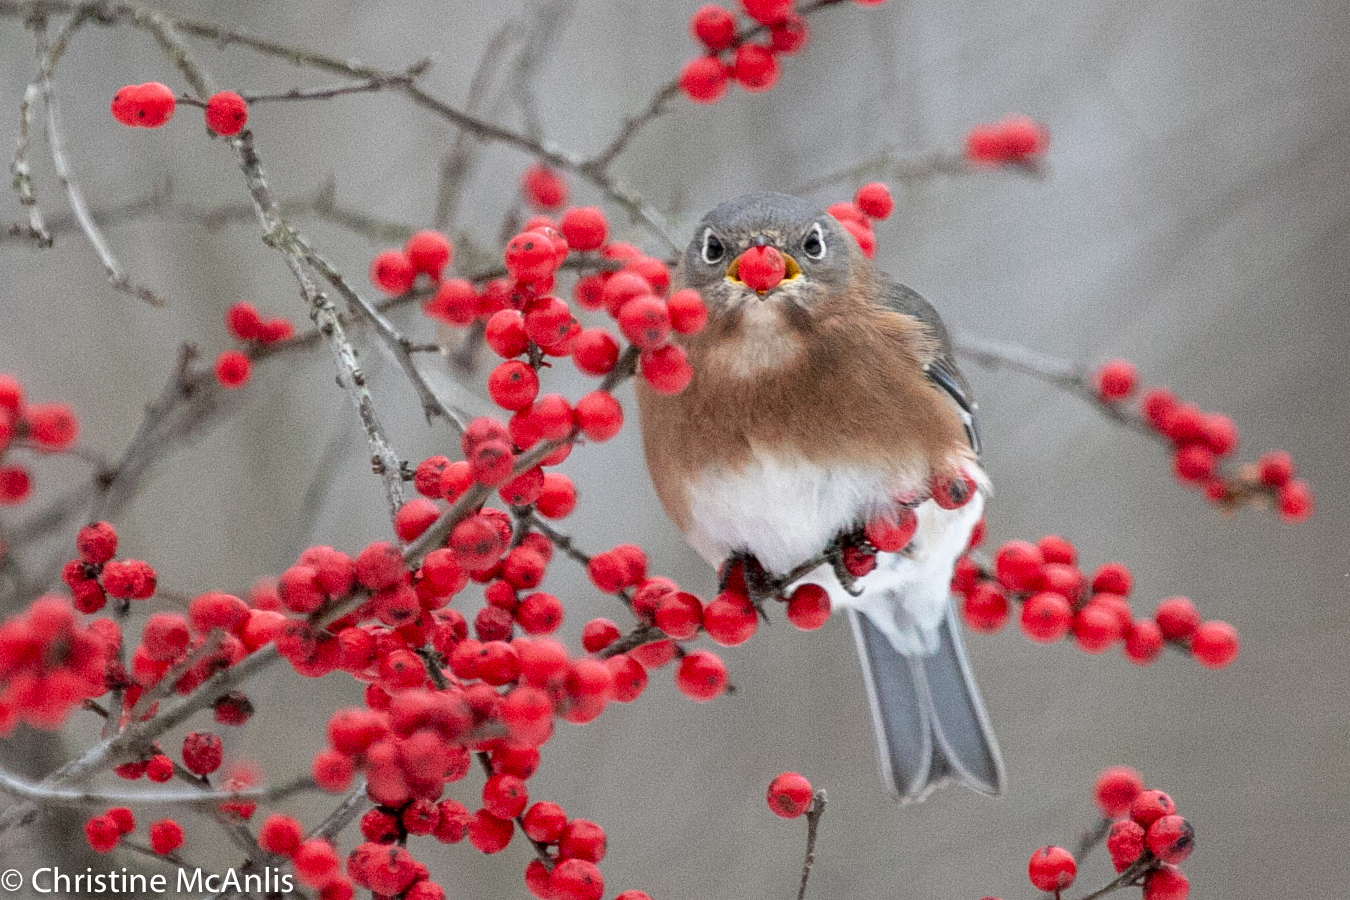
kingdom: Animalia
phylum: Chordata
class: Aves
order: Passeriformes
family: Turdidae
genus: Sialia
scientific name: Sialia sialis
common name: Eastern bluebird
